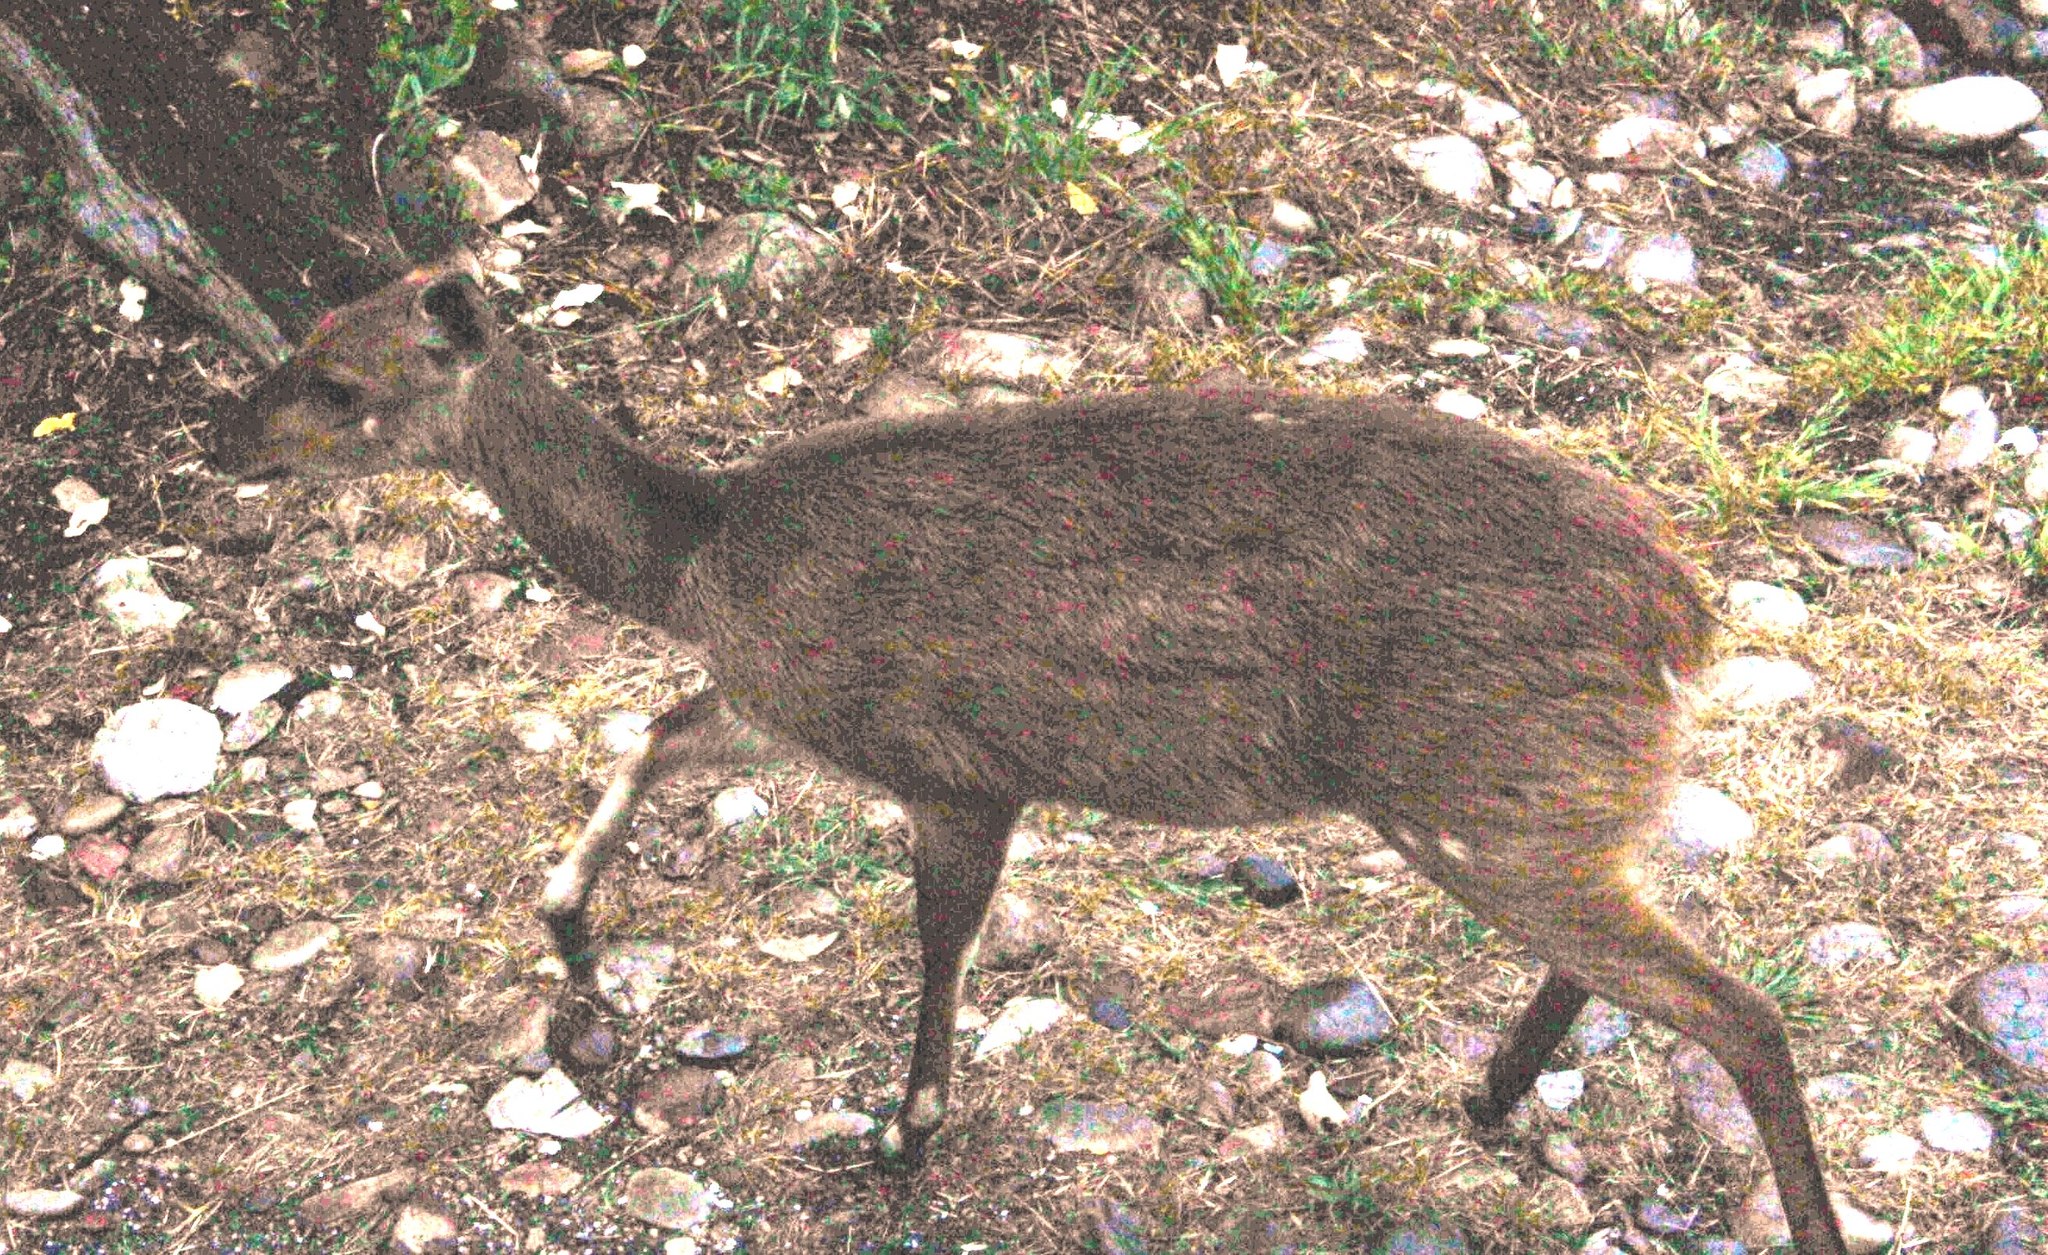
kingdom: Animalia
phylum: Chordata
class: Mammalia
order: Artiodactyla
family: Bovidae
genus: Tragelaphus
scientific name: Tragelaphus scriptus
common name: Bushbuck
